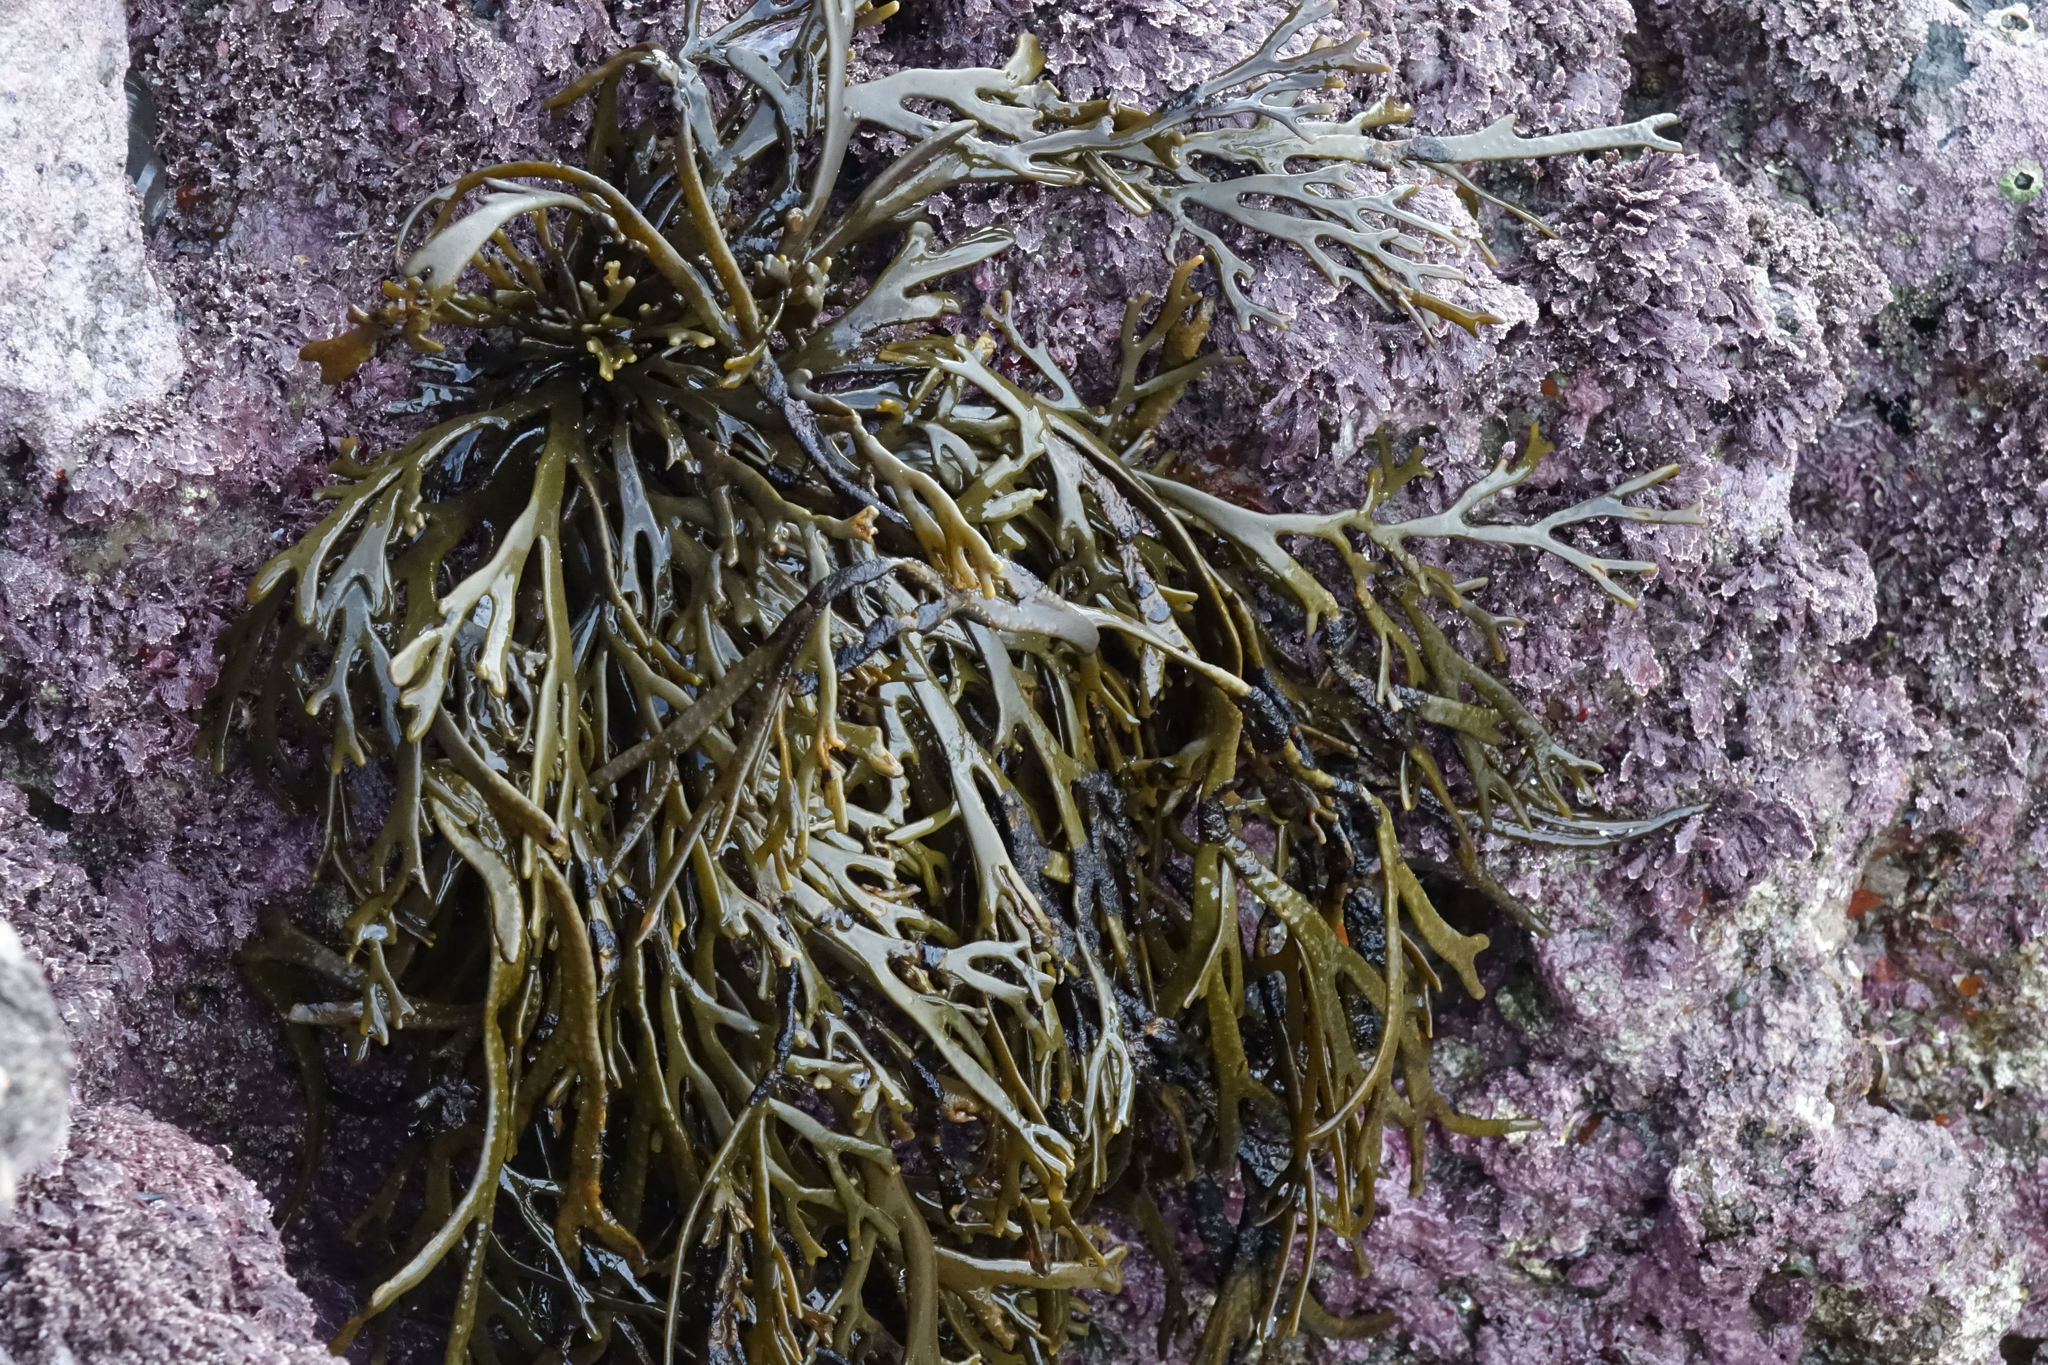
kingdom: Chromista
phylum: Ochrophyta
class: Phaeophyceae
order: Fucales
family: Xiphophoraceae
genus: Xiphophora
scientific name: Xiphophora gladiata
